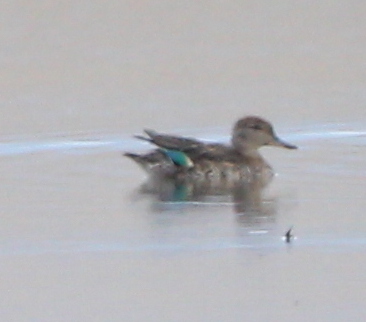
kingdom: Animalia
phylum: Chordata
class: Aves
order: Anseriformes
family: Anatidae
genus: Anas
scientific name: Anas crecca
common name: Eurasian teal
